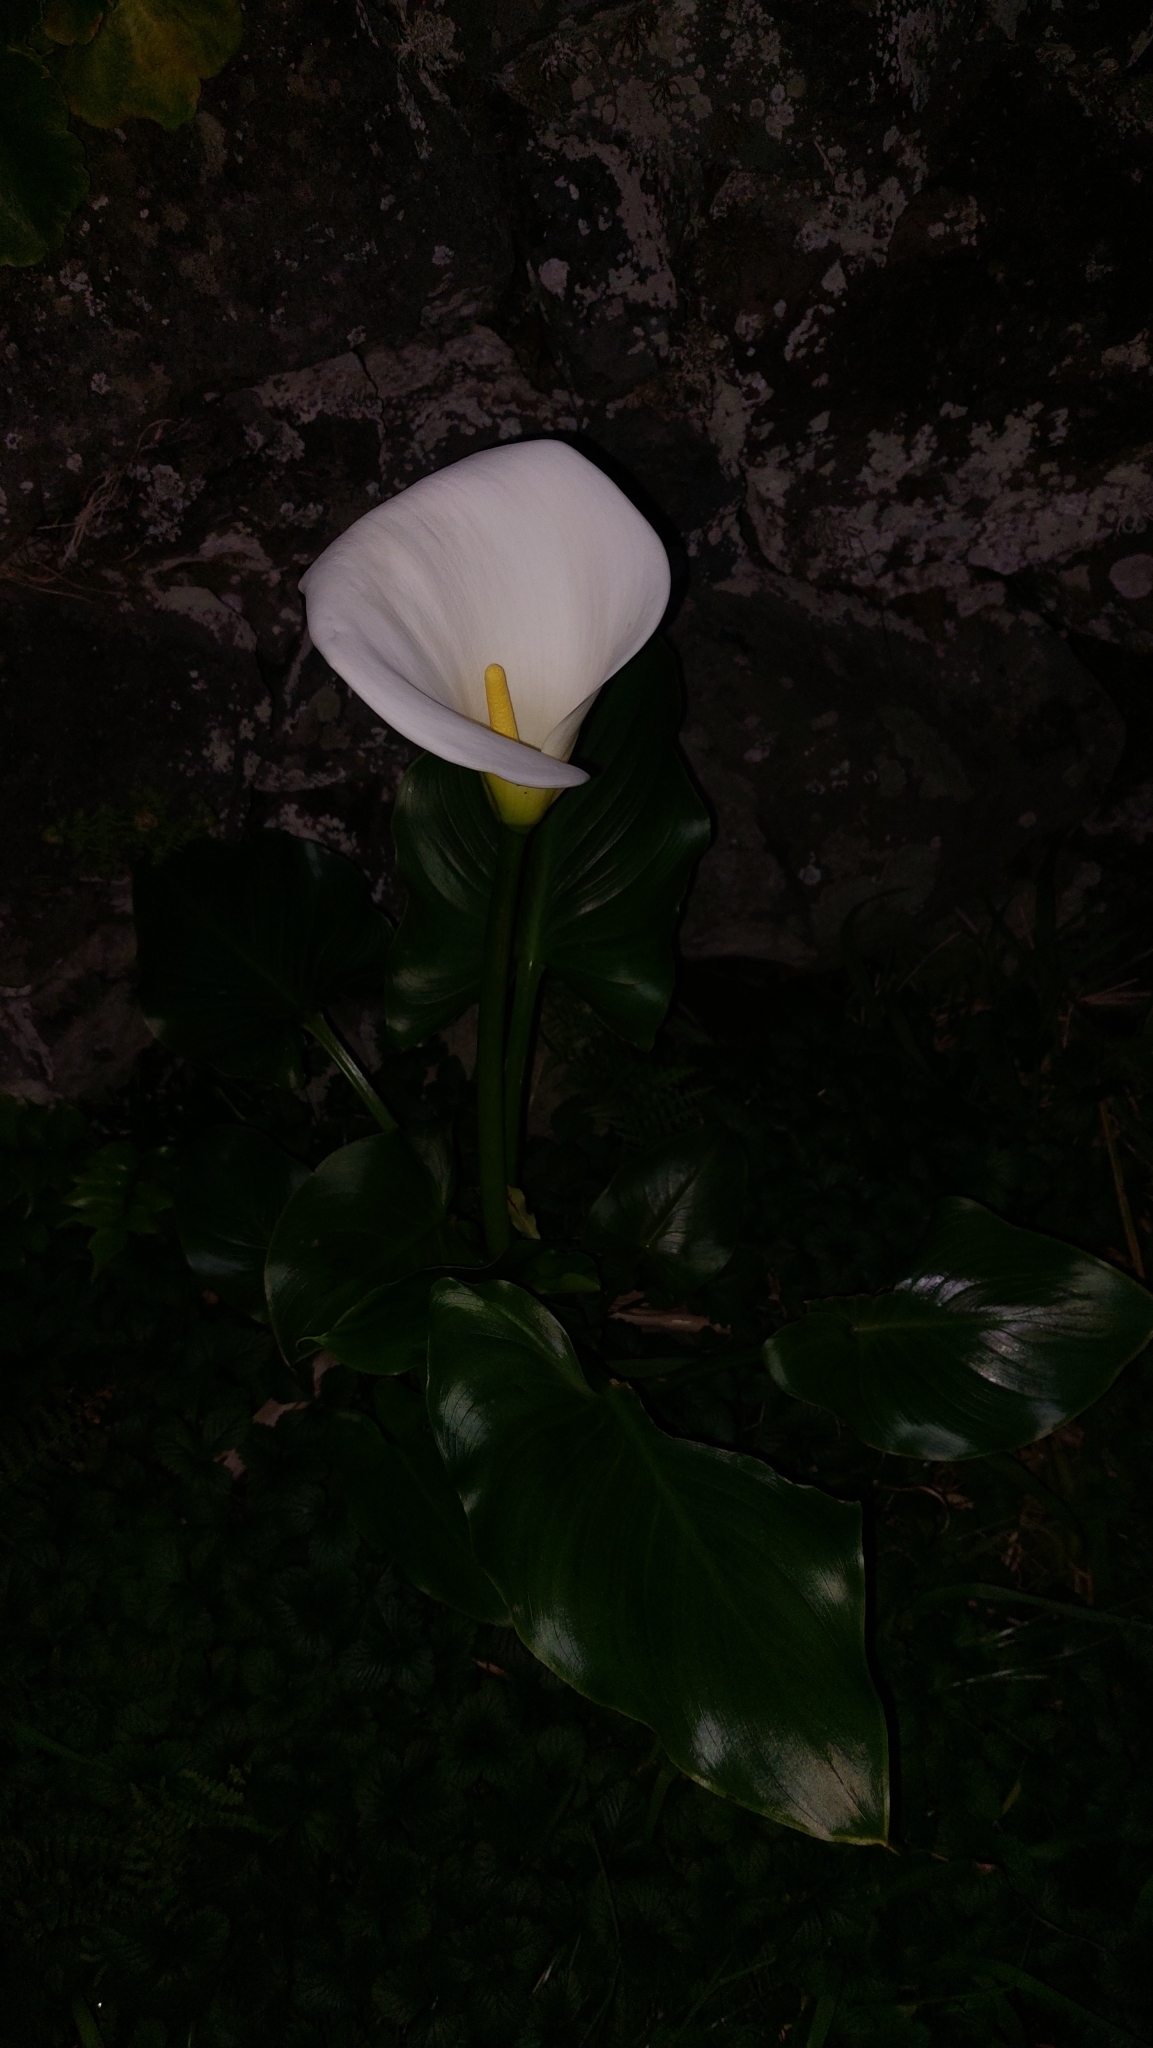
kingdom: Plantae
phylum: Tracheophyta
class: Liliopsida
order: Alismatales
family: Araceae
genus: Zantedeschia
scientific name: Zantedeschia aethiopica
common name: Altar-lily
